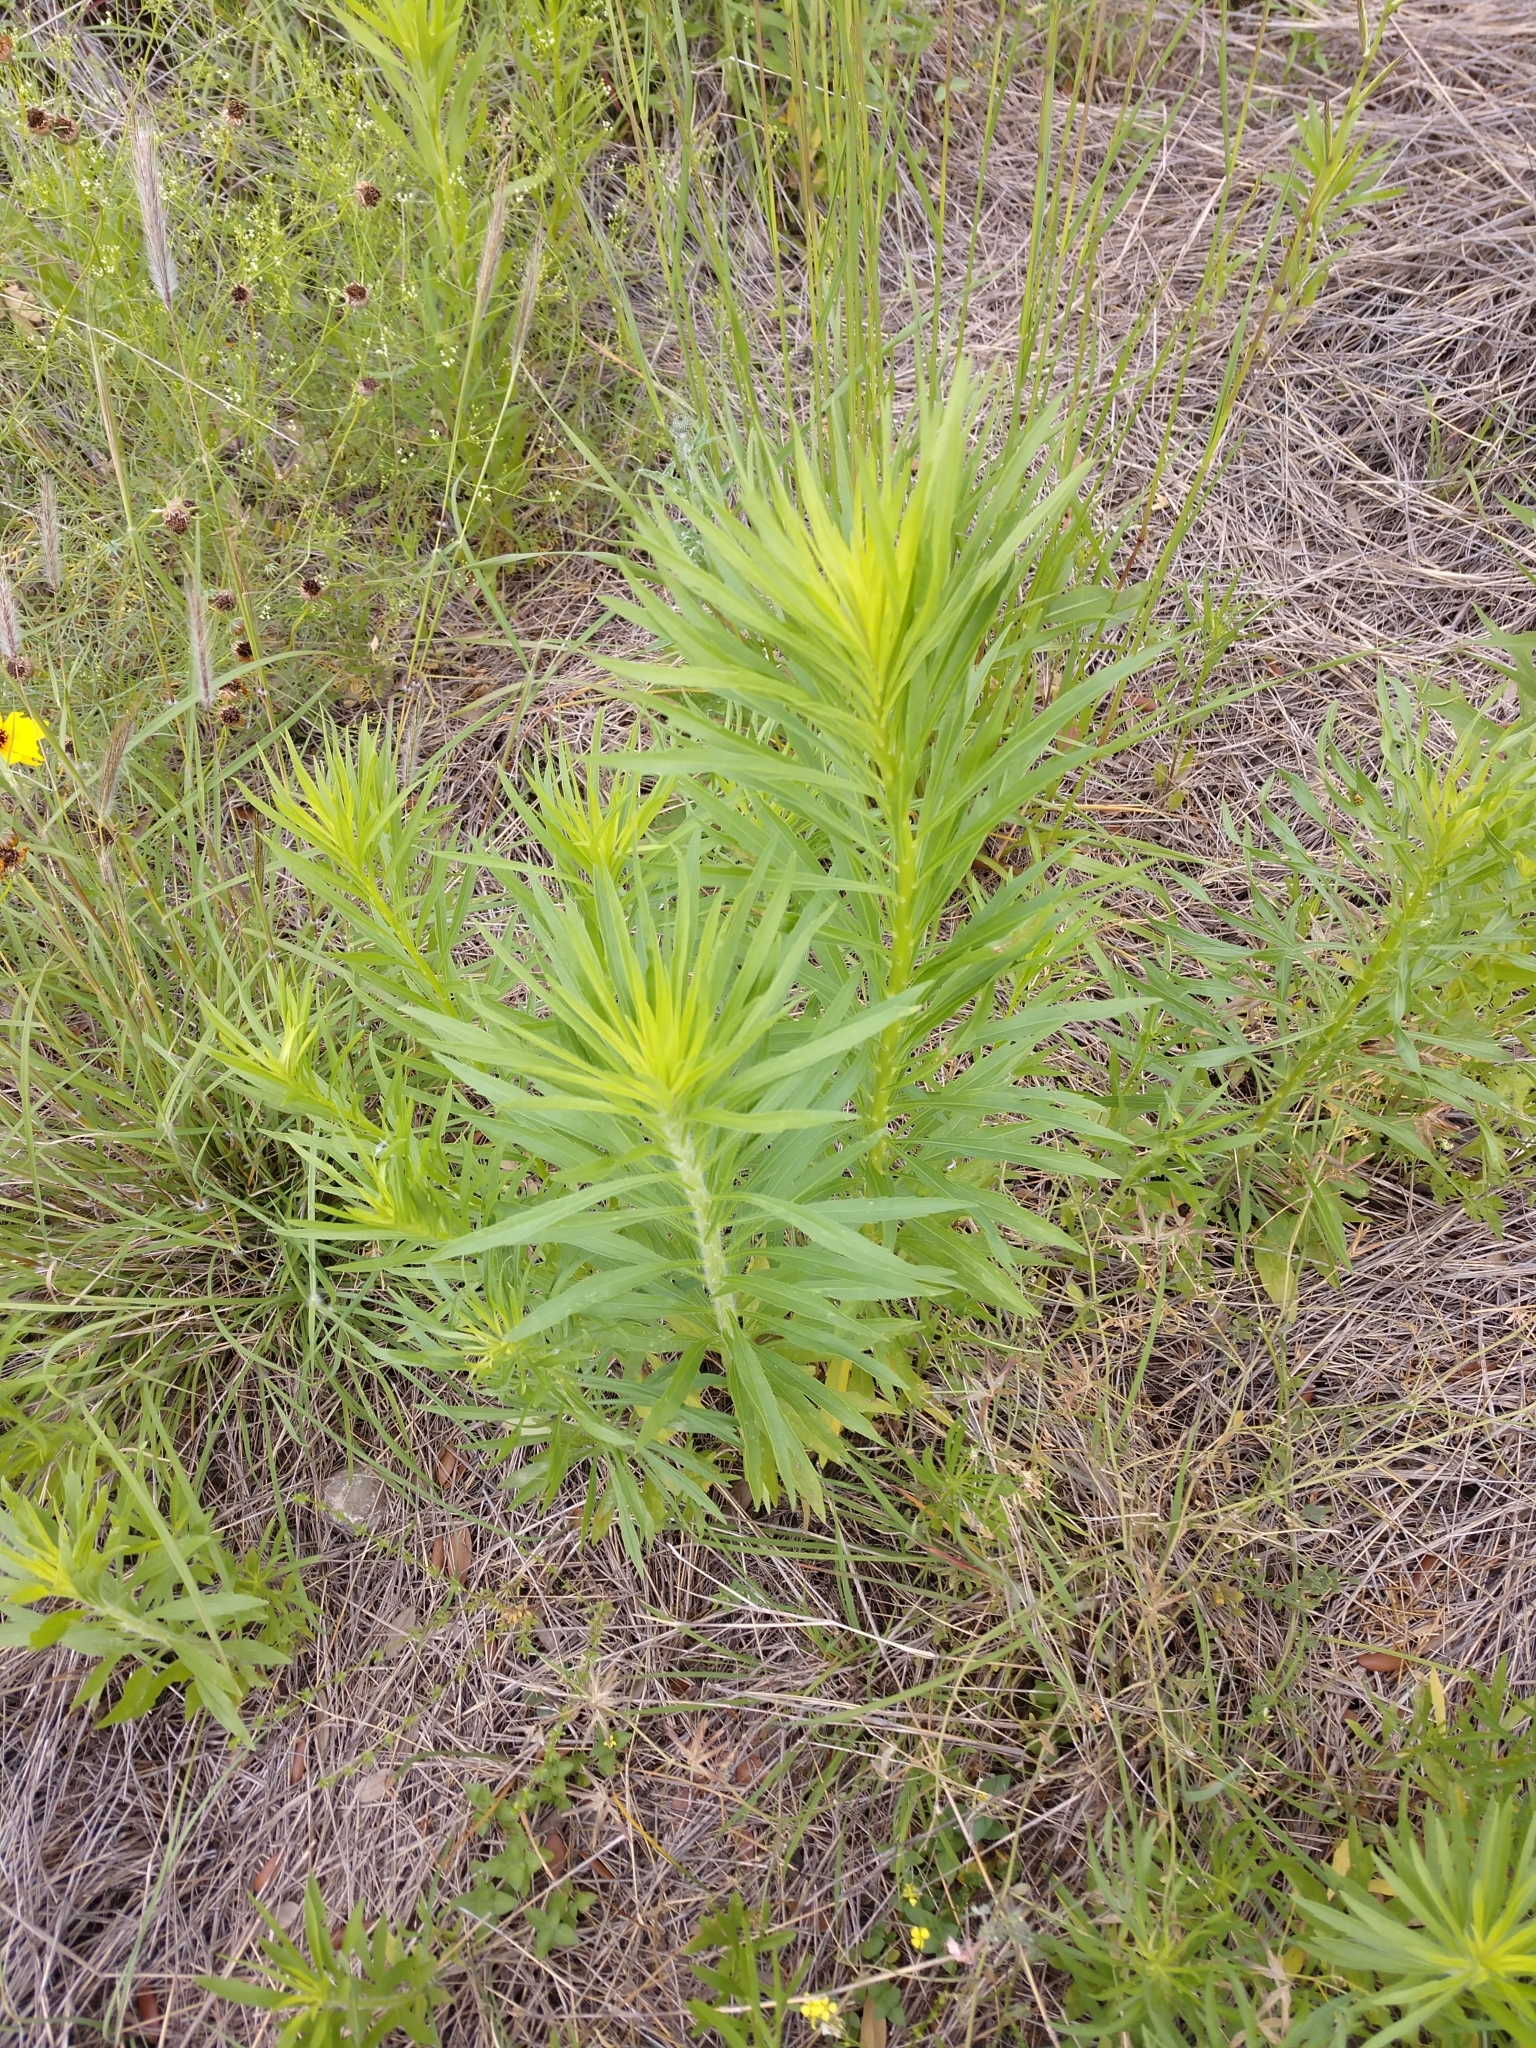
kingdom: Plantae
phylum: Tracheophyta
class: Magnoliopsida
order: Asterales
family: Asteraceae
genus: Erigeron
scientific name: Erigeron canadensis
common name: Canadian fleabane
